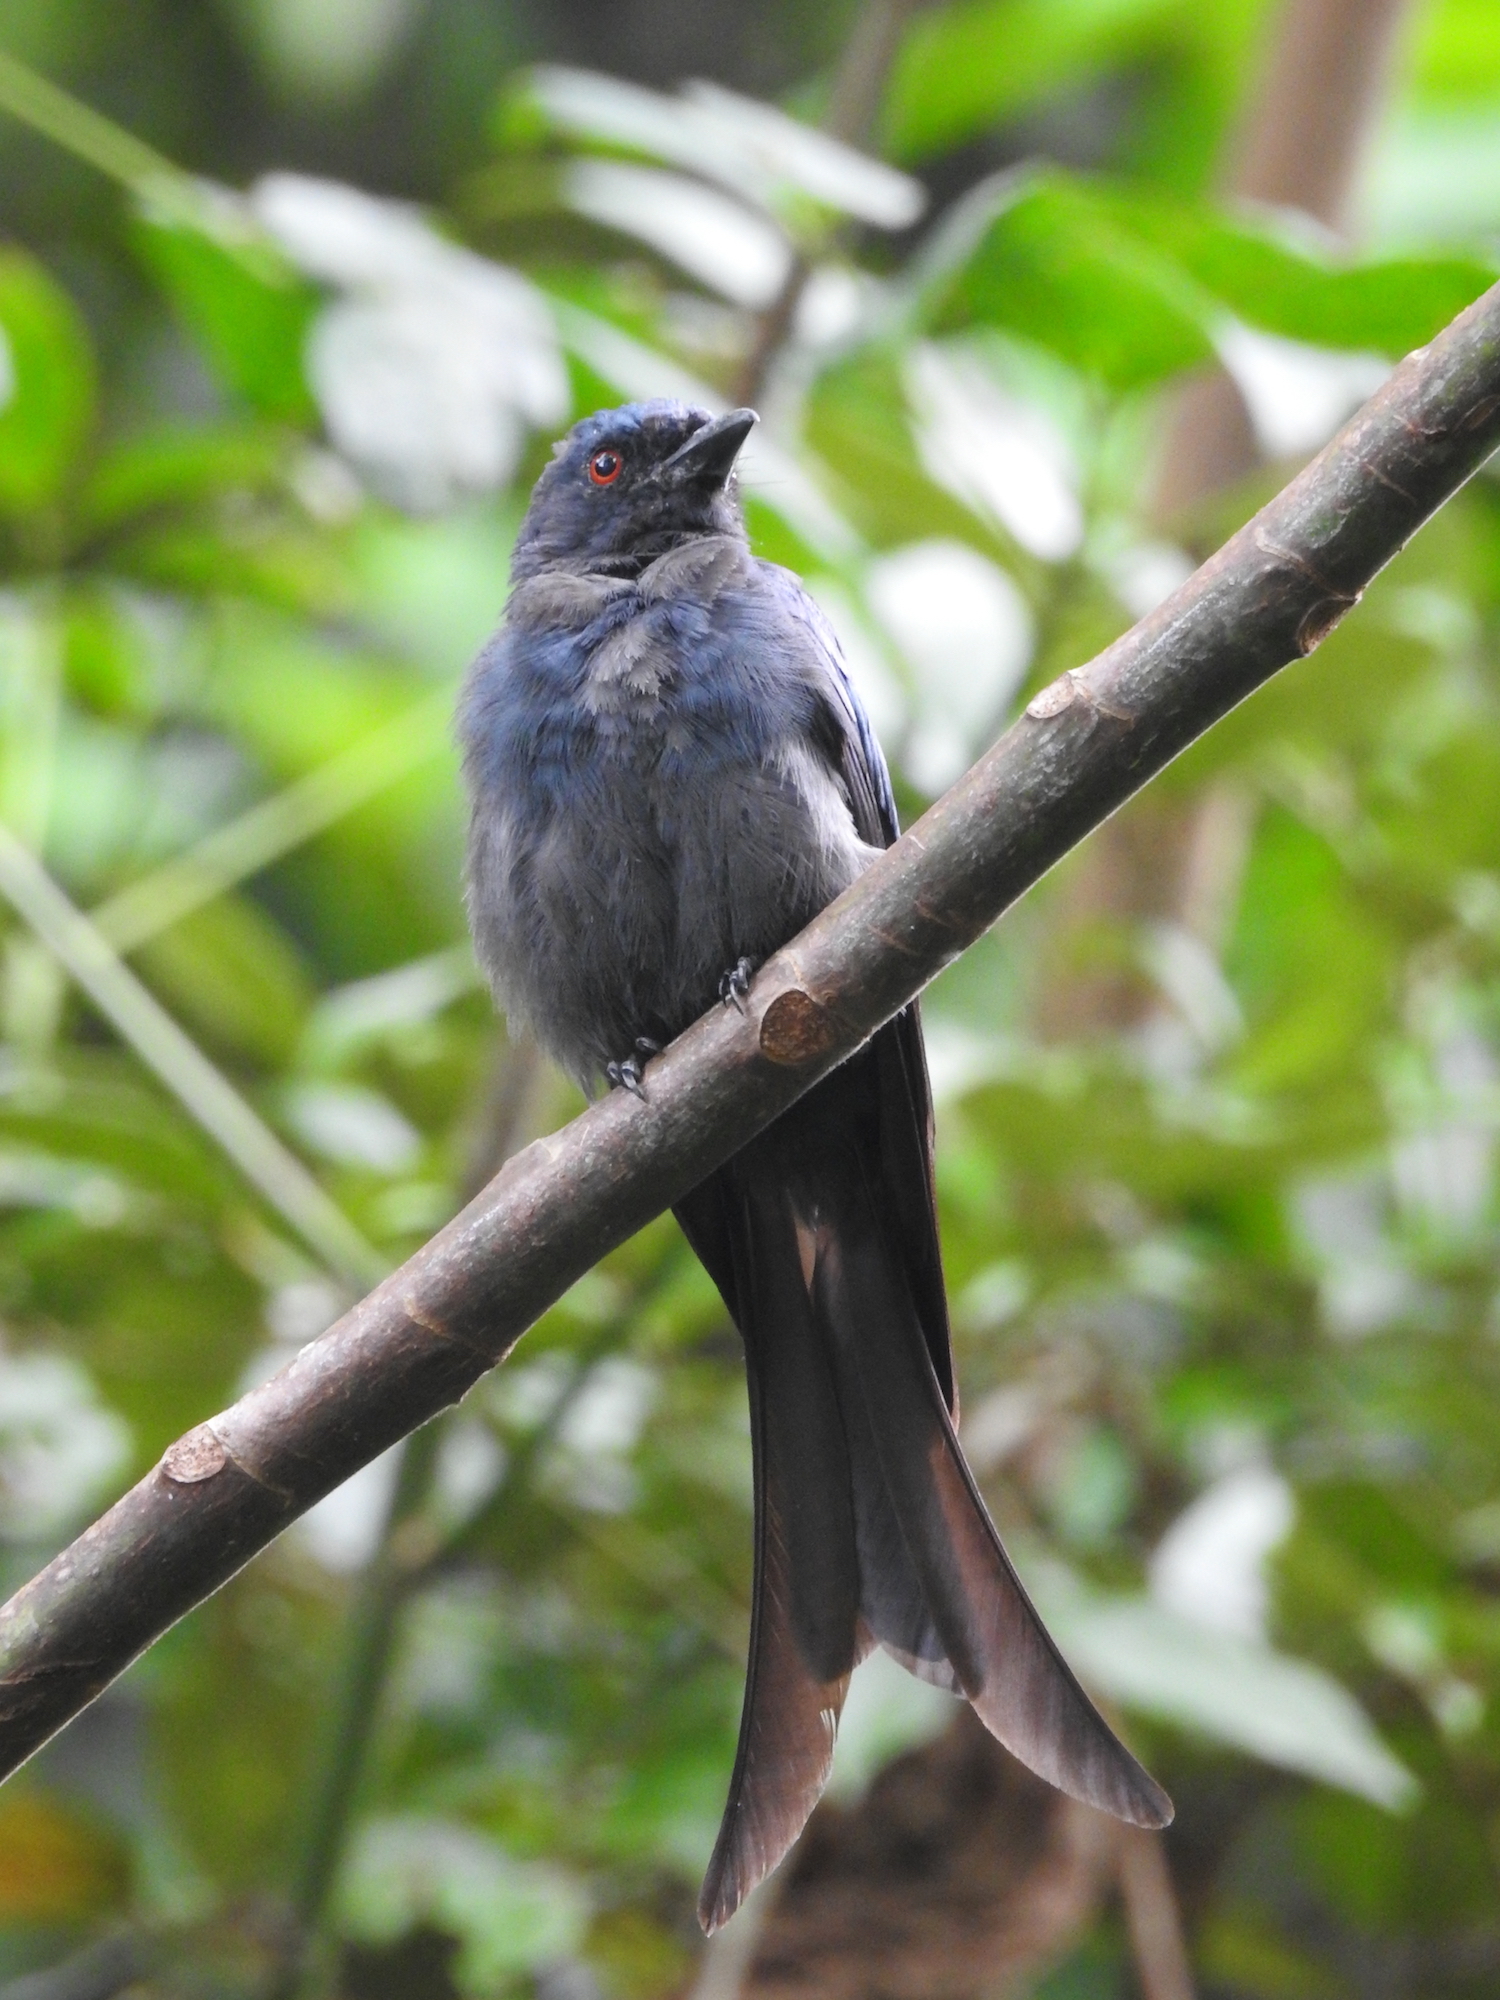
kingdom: Animalia
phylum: Chordata
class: Aves
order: Passeriformes
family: Dicruridae
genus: Dicrurus
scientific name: Dicrurus leucophaeus
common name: Ashy drongo
